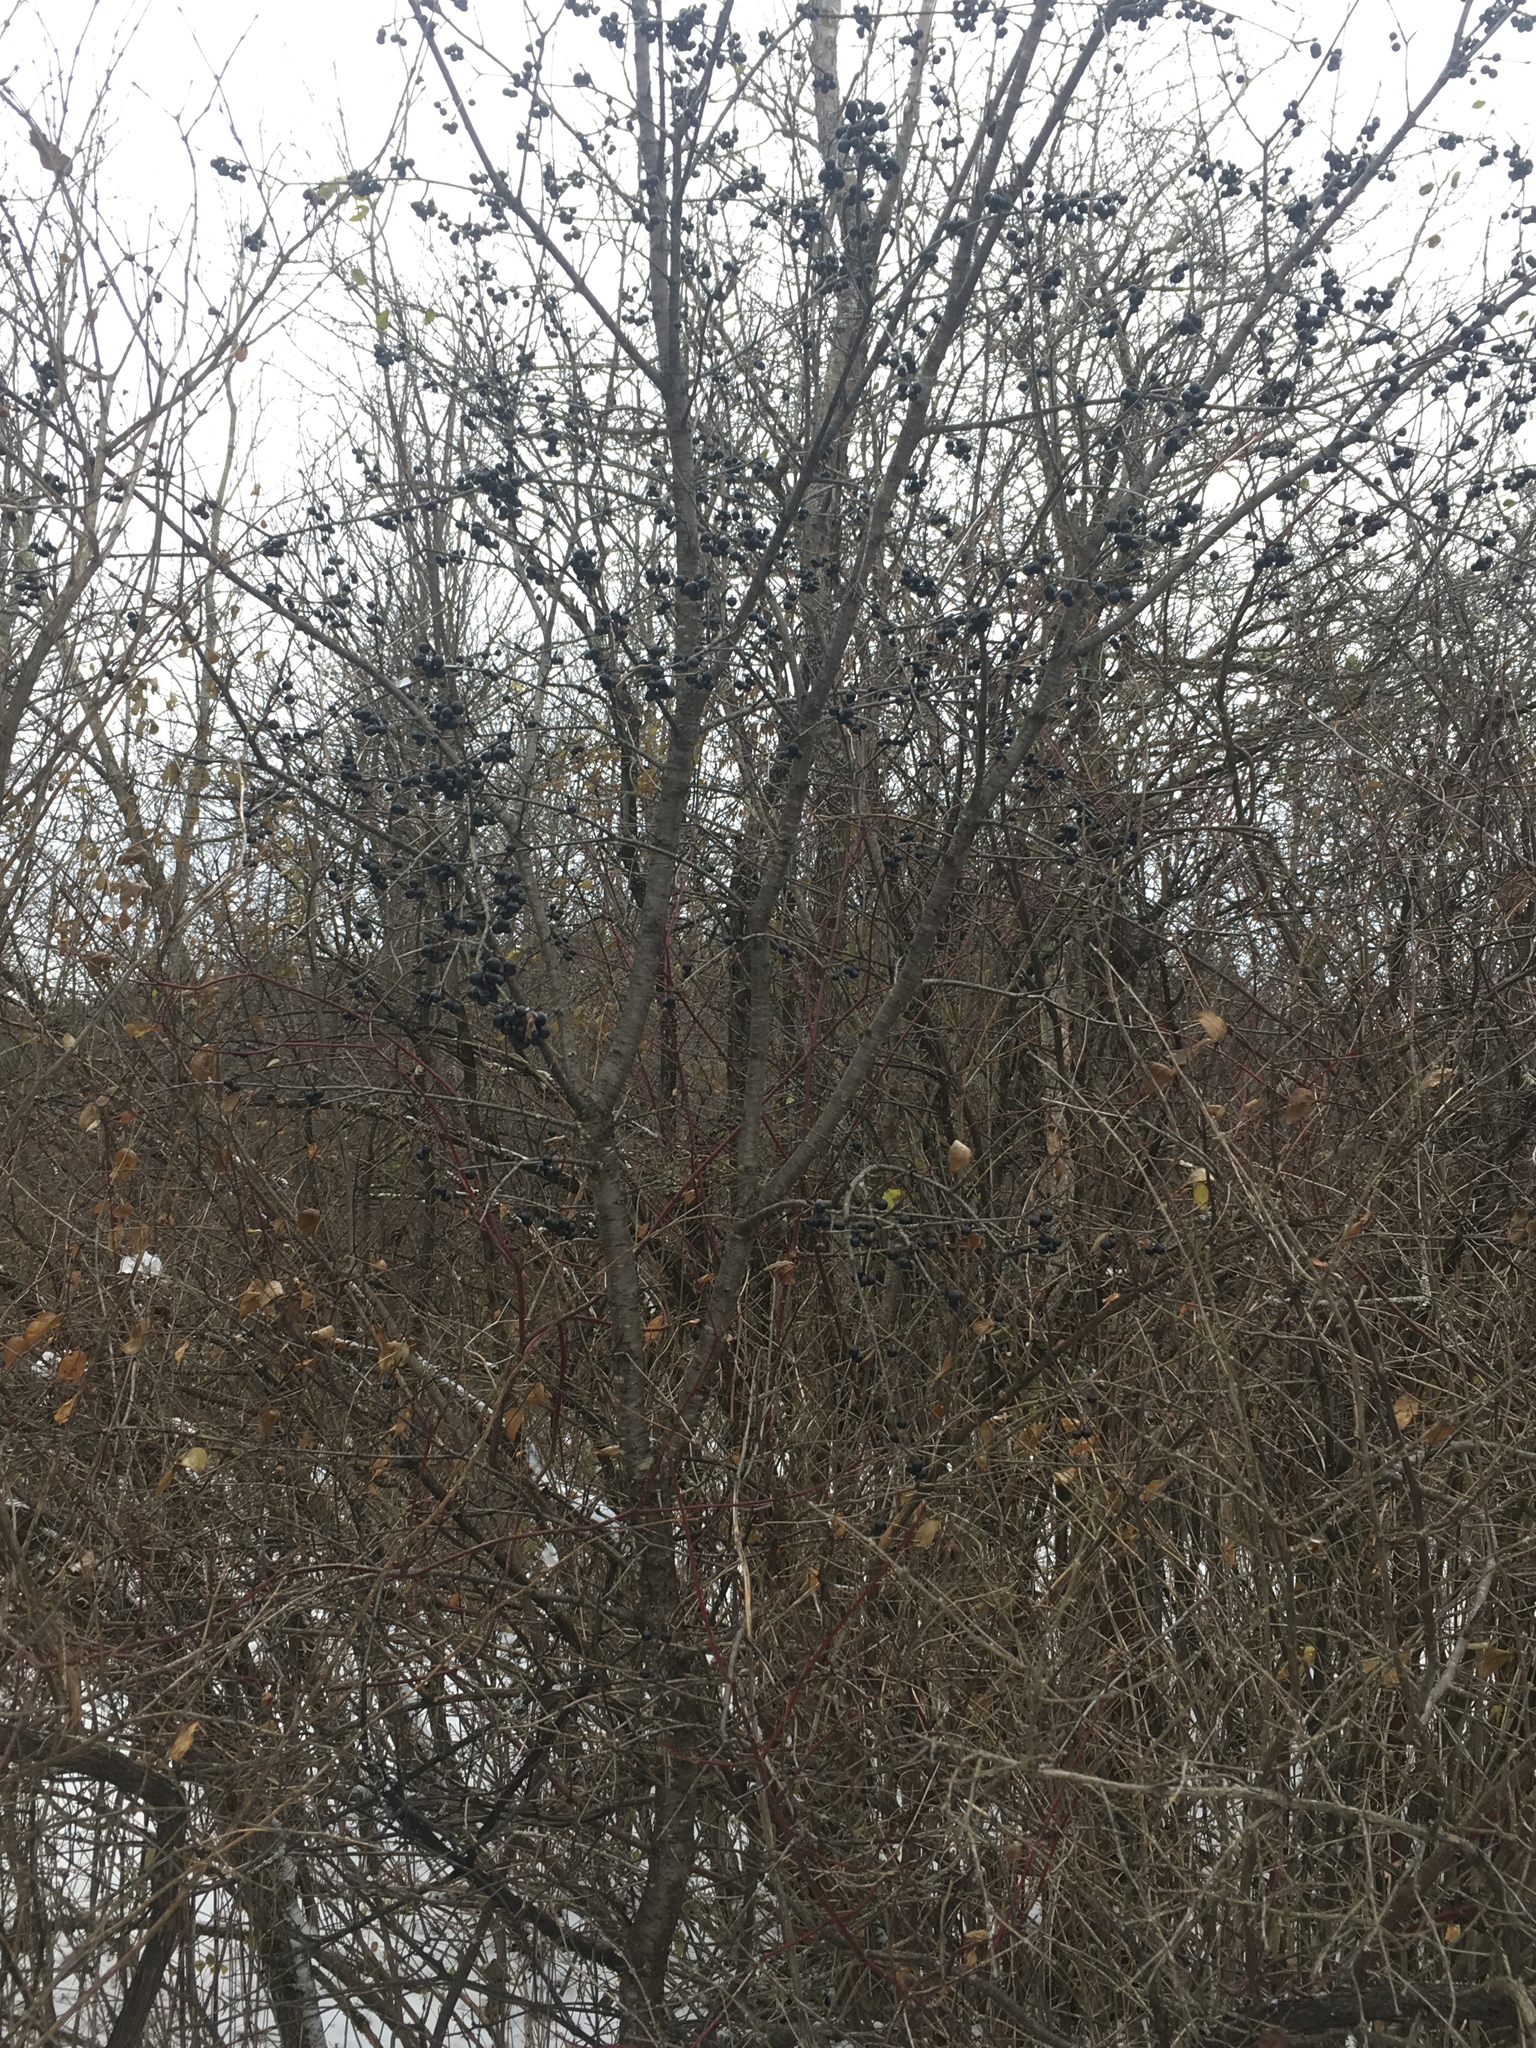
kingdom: Plantae
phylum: Tracheophyta
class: Magnoliopsida
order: Rosales
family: Rhamnaceae
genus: Rhamnus
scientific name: Rhamnus cathartica
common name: Common buckthorn
